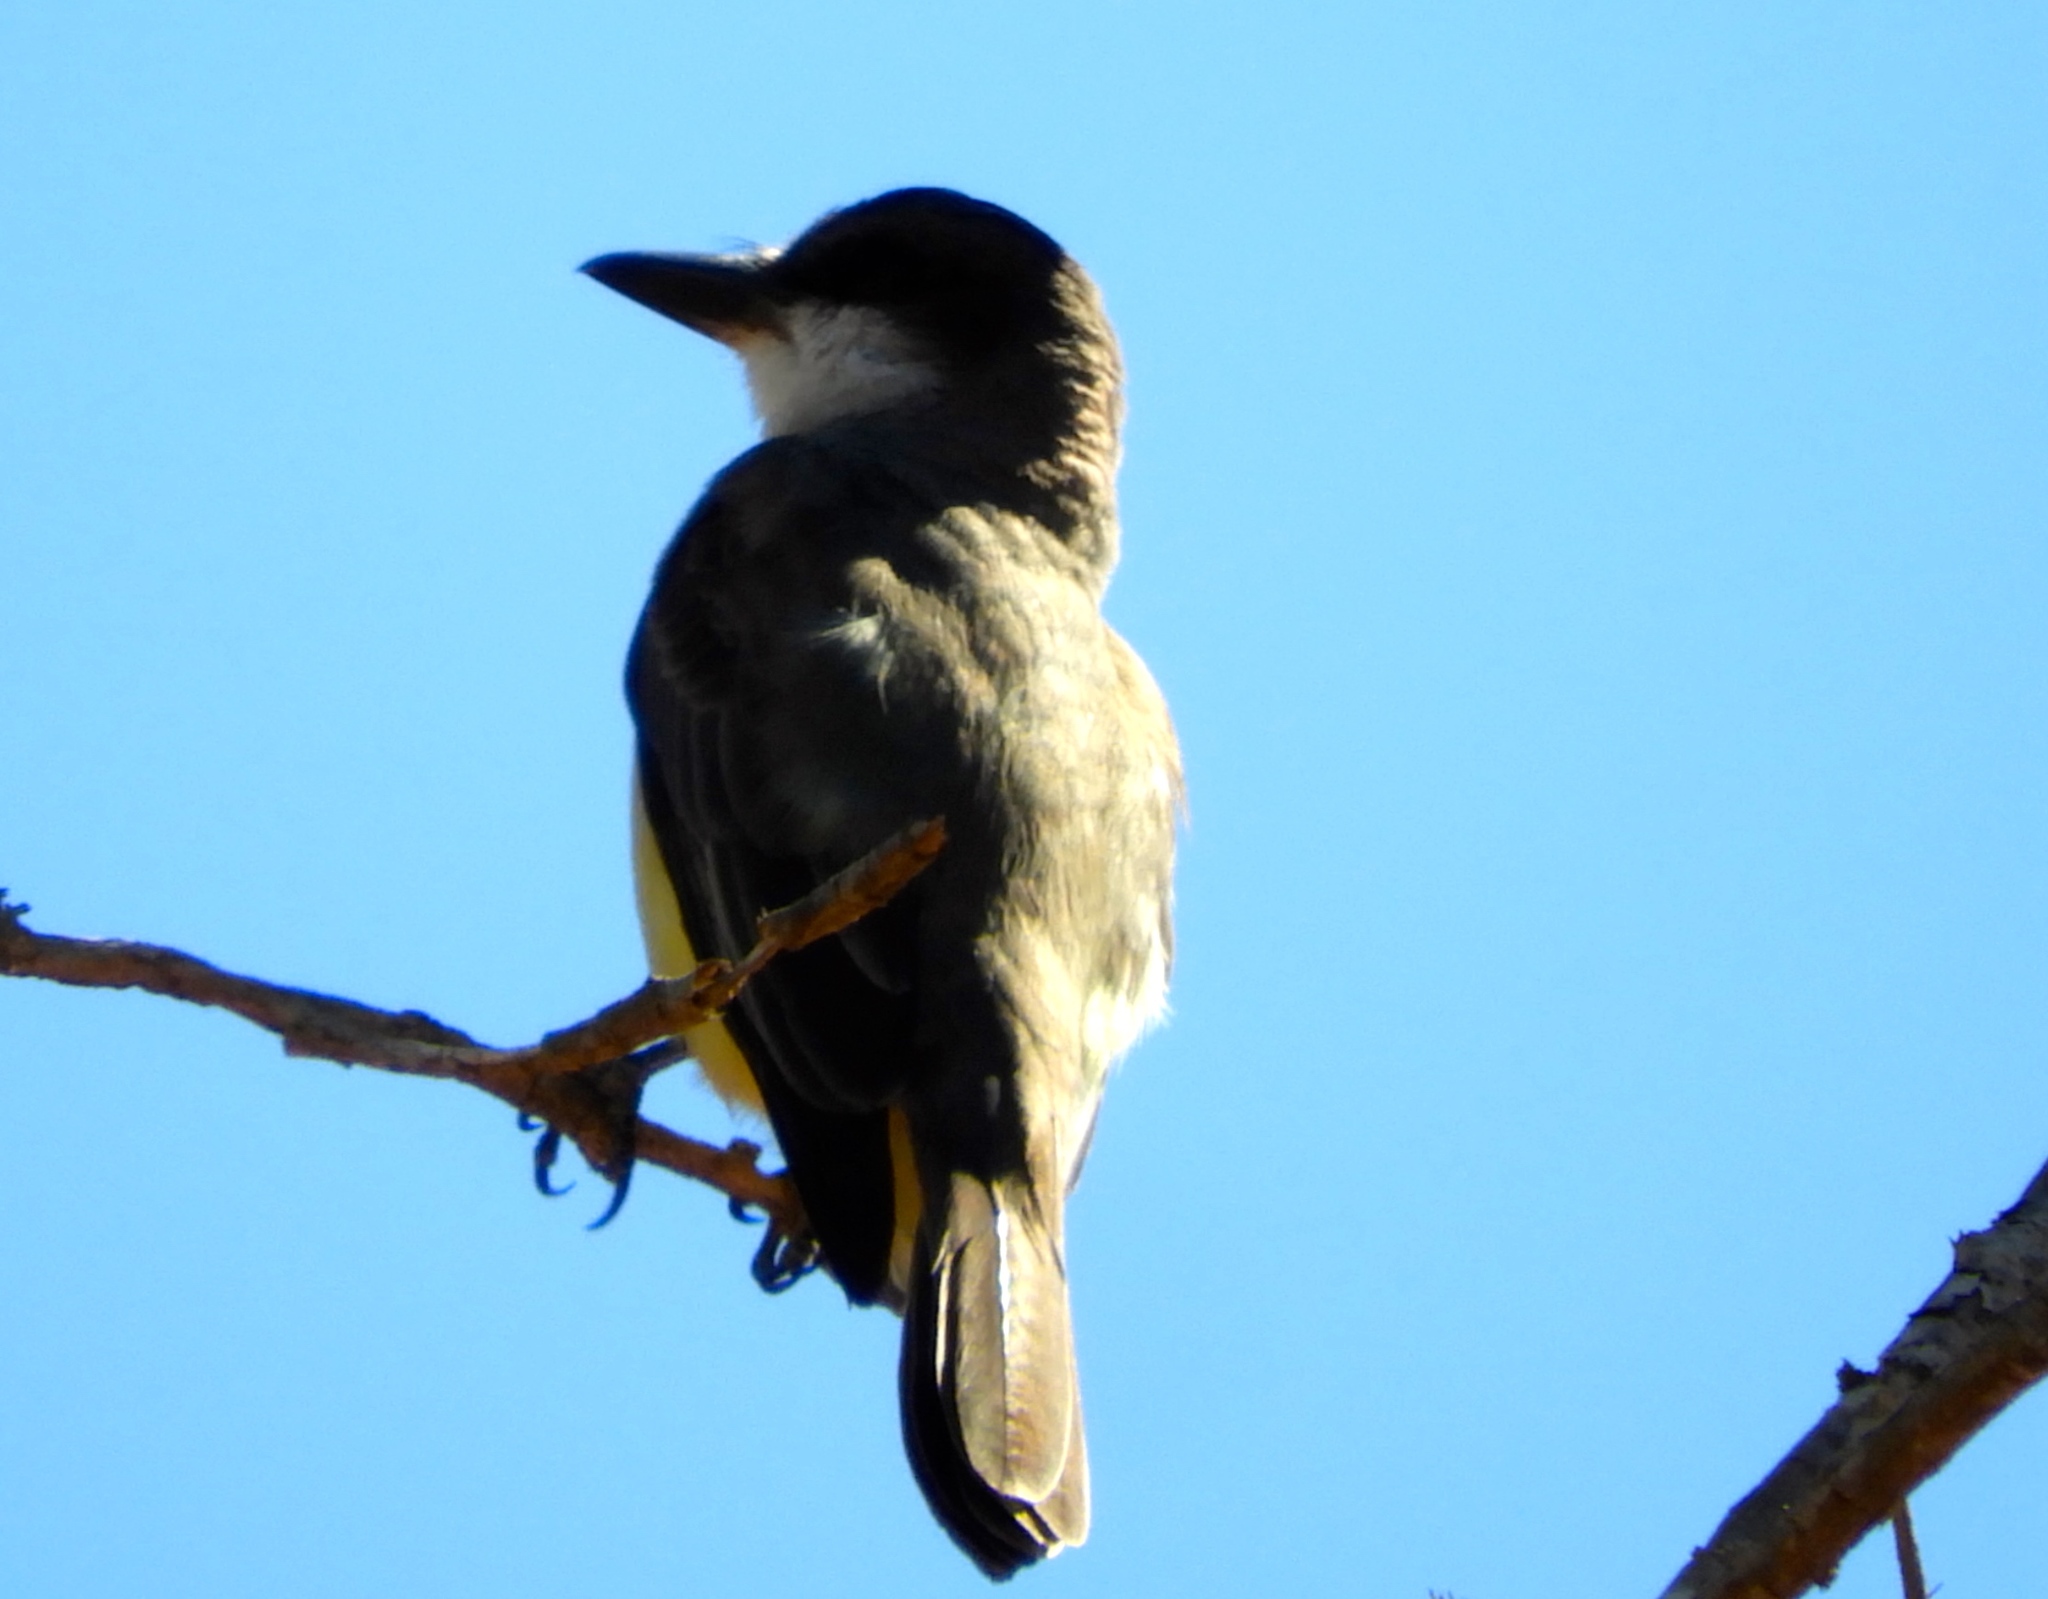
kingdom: Animalia
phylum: Chordata
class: Aves
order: Passeriformes
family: Tyrannidae
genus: Tyrannus
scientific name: Tyrannus crassirostris
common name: Thick-billed kingbird
